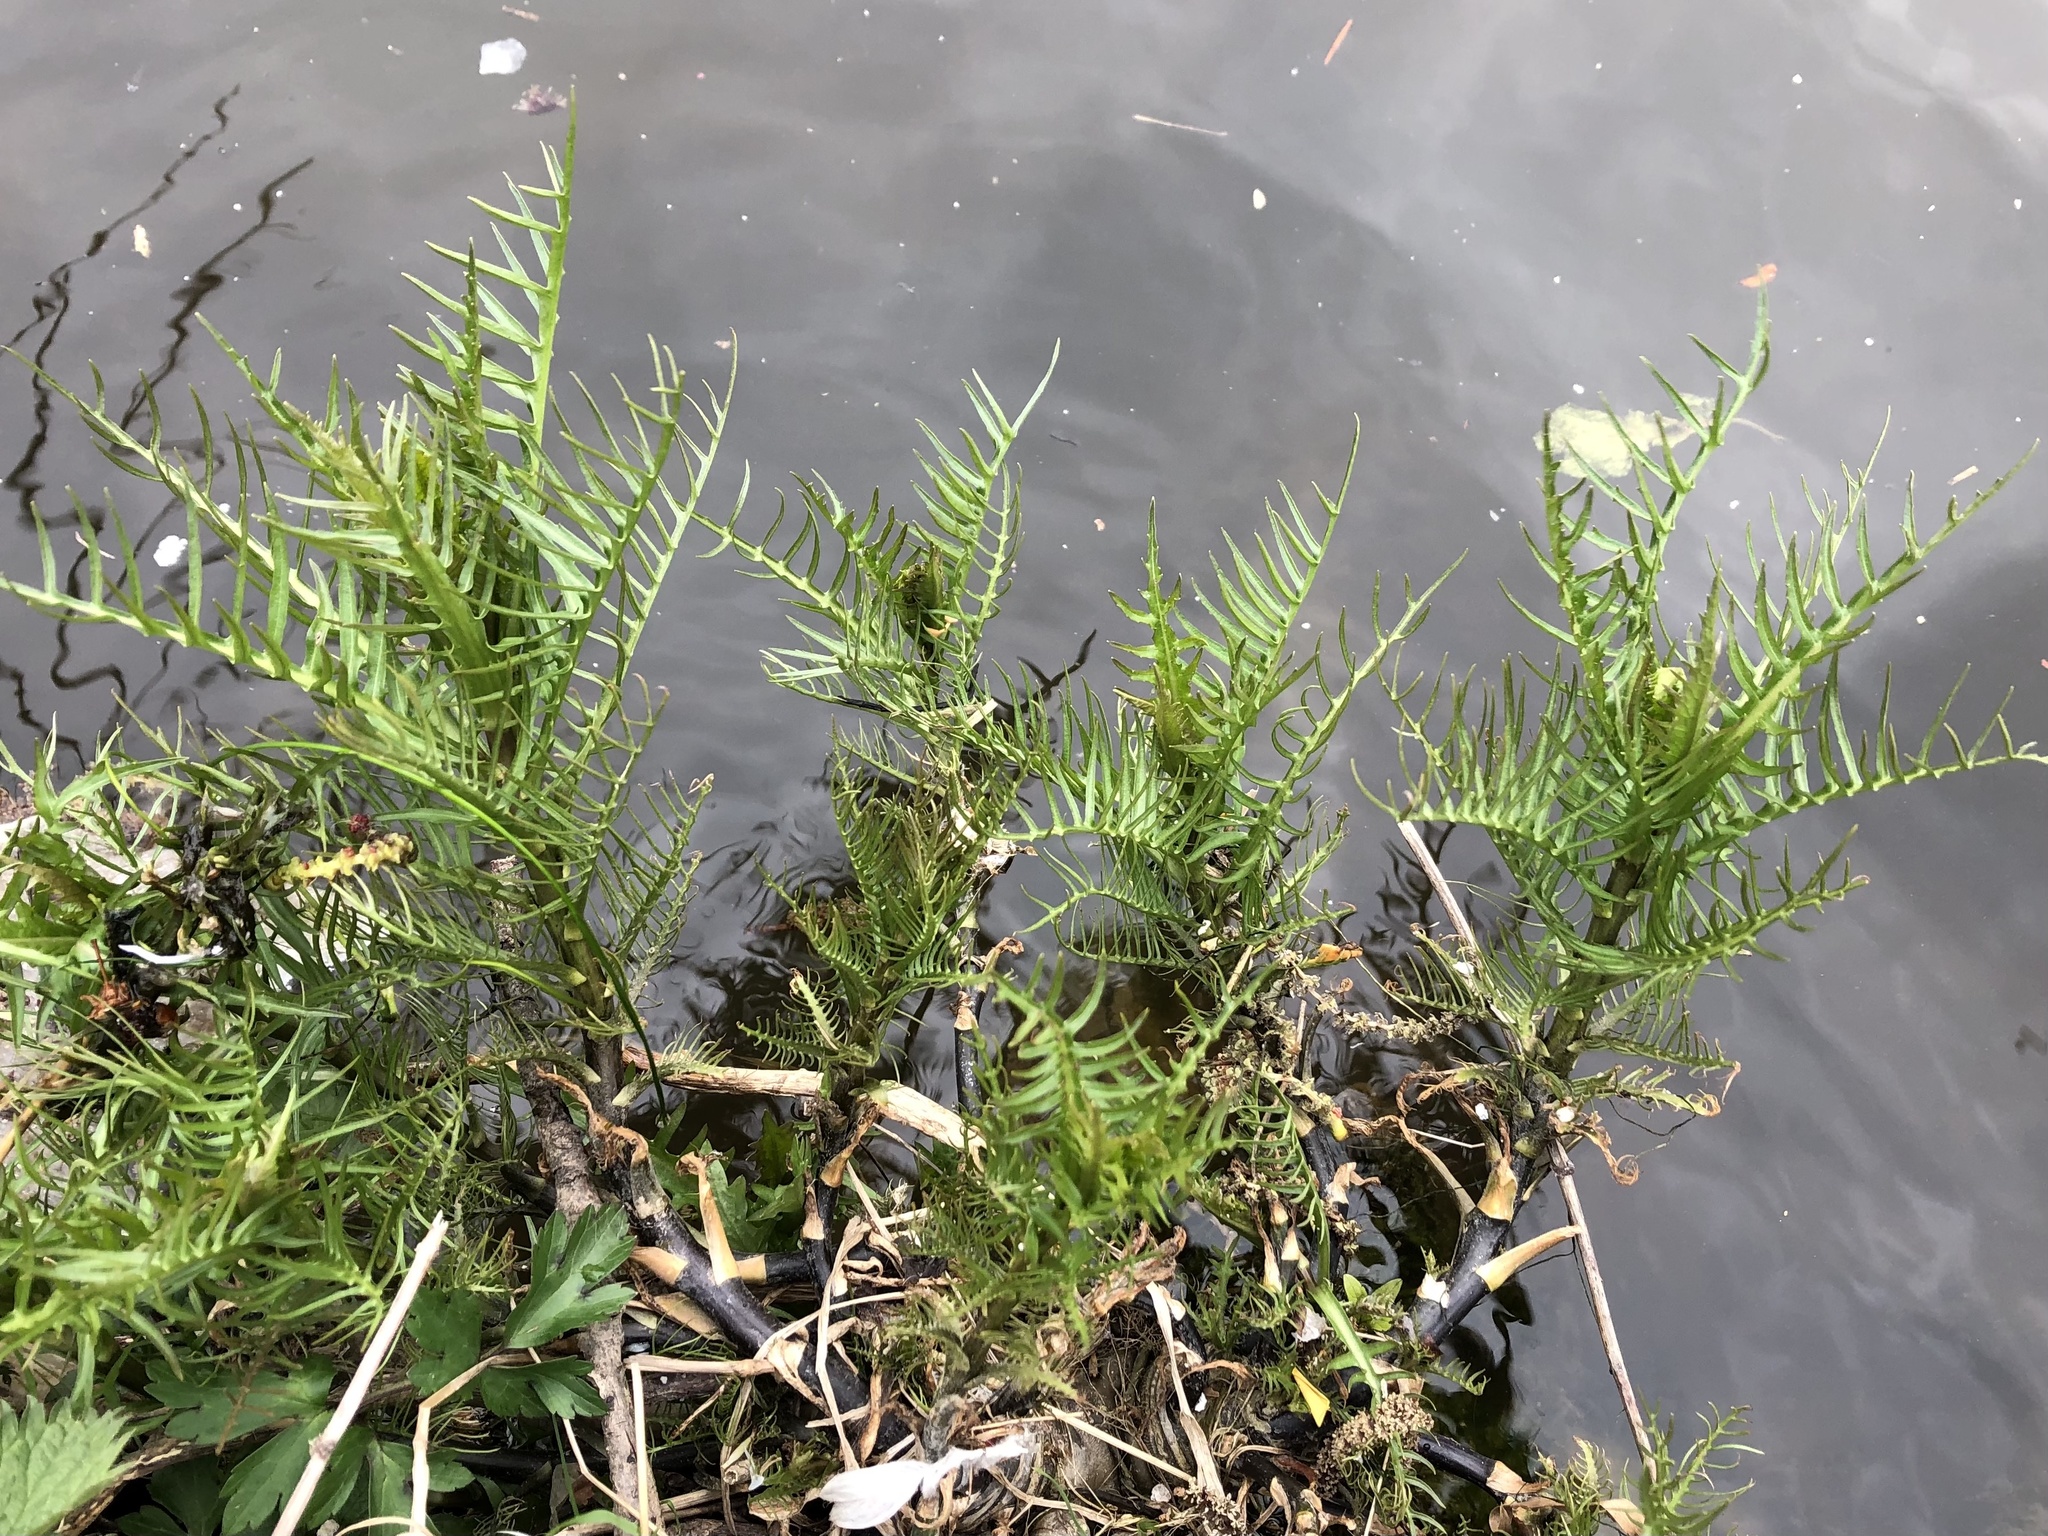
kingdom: Plantae
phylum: Tracheophyta
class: Magnoliopsida
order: Brassicales
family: Brassicaceae
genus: Rorippa
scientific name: Rorippa amphibia
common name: Great yellow-cress
